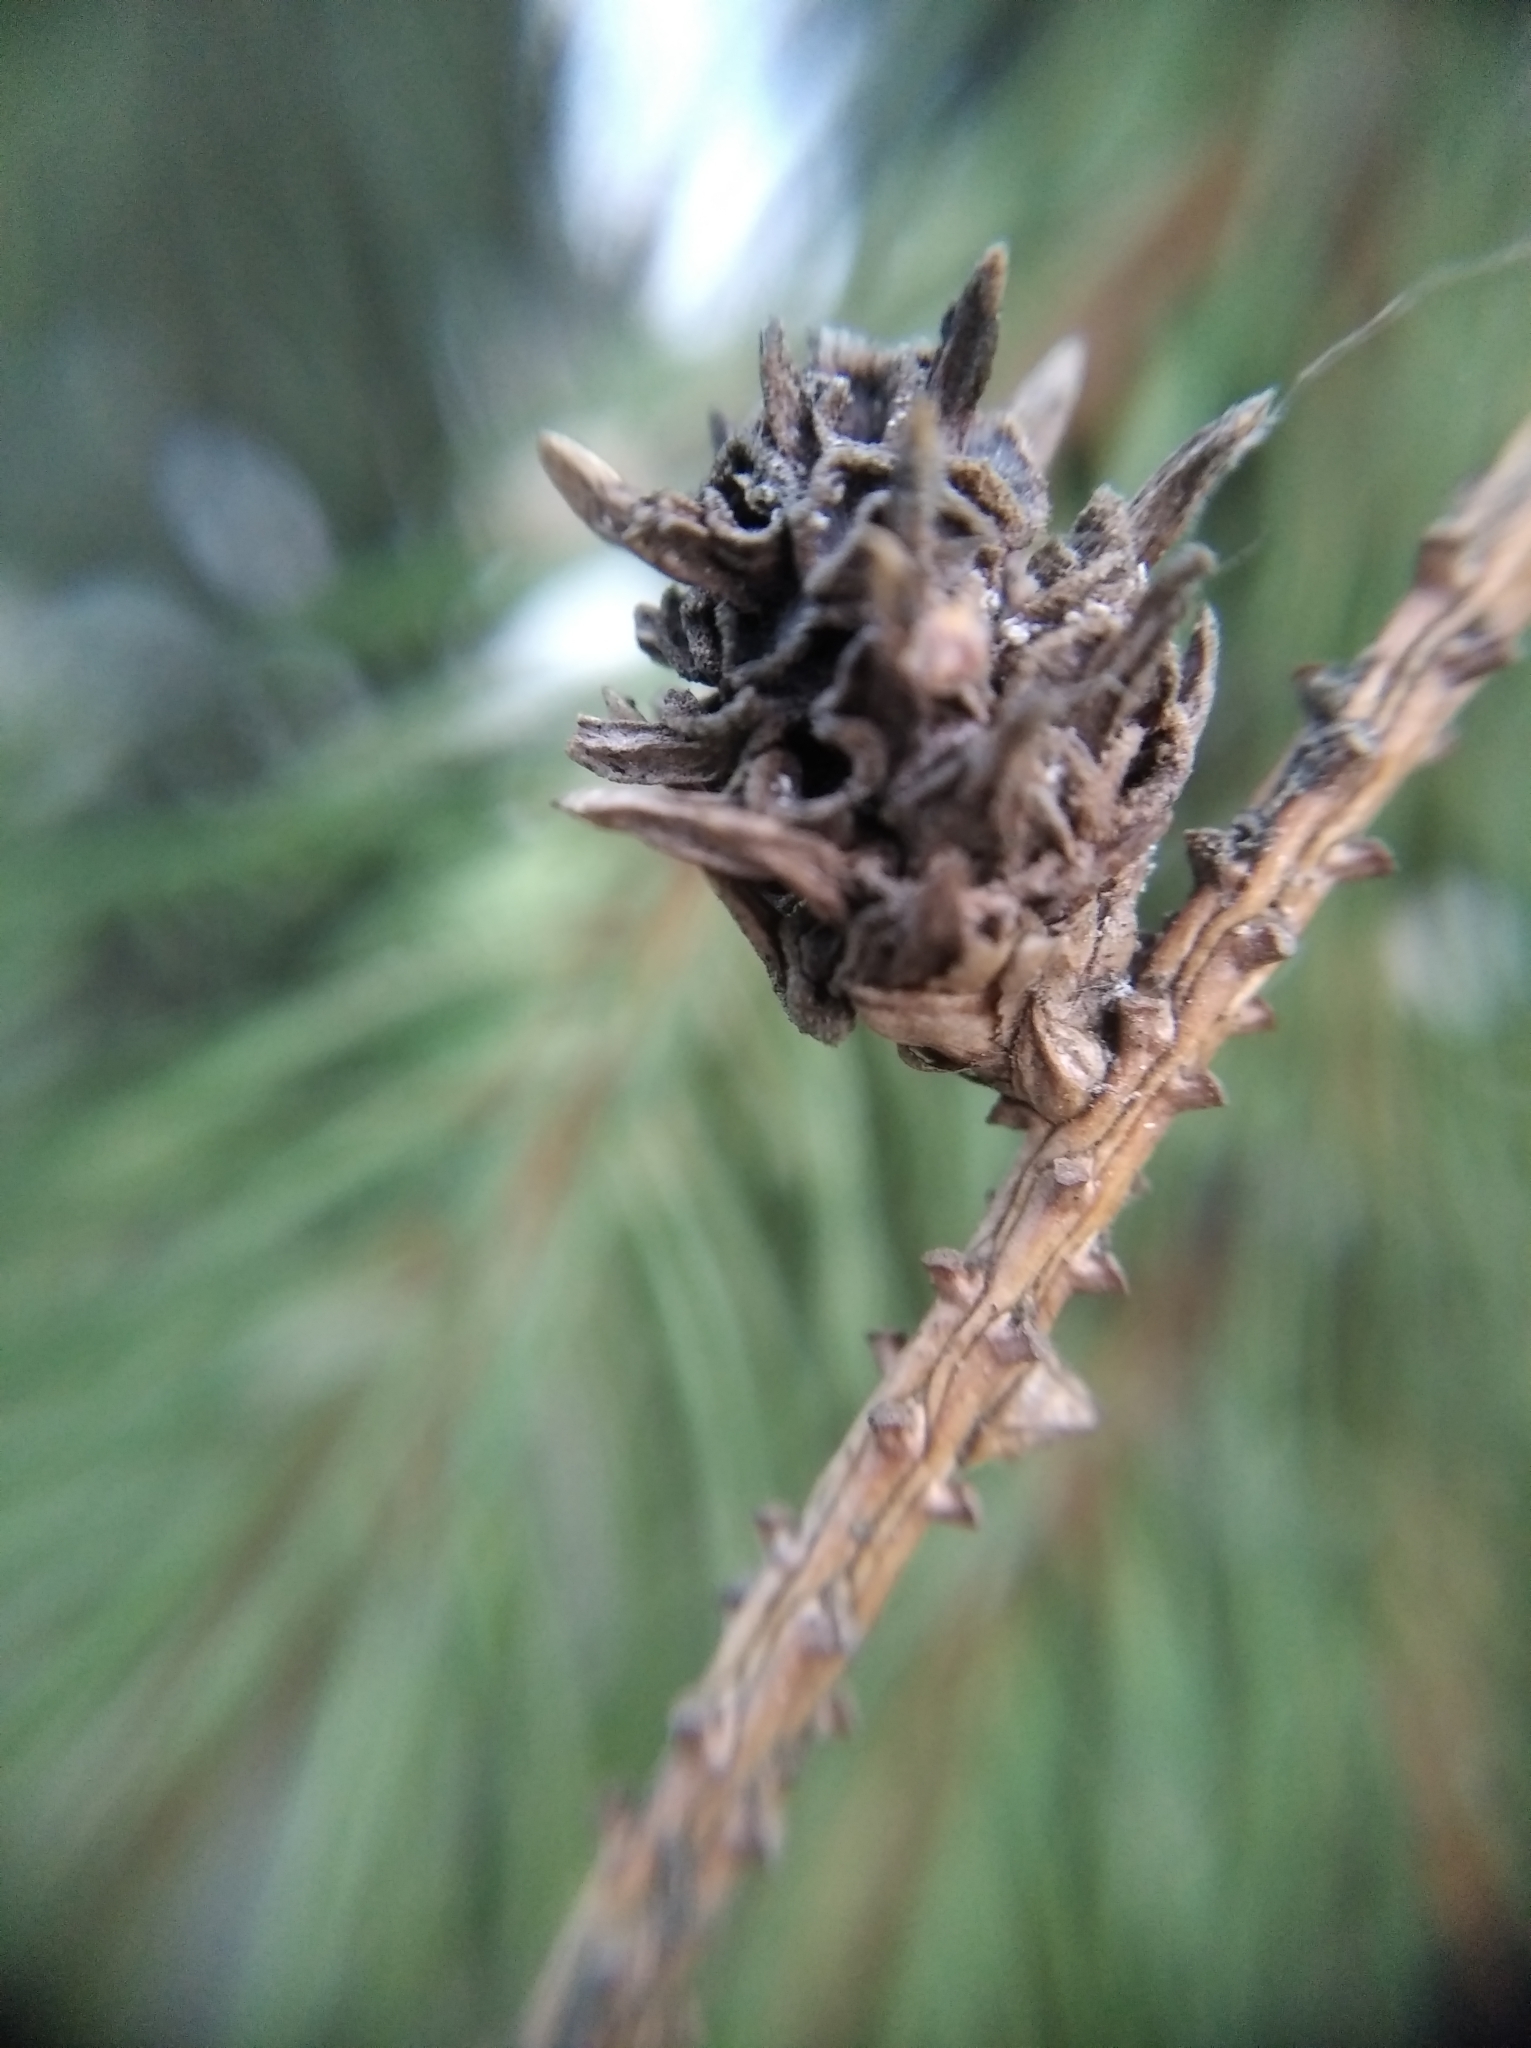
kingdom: Animalia
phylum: Arthropoda
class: Insecta
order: Hemiptera
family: Adelgidae
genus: Adelges
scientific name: Adelges abietis
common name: Eastern spruce gall adelgid
